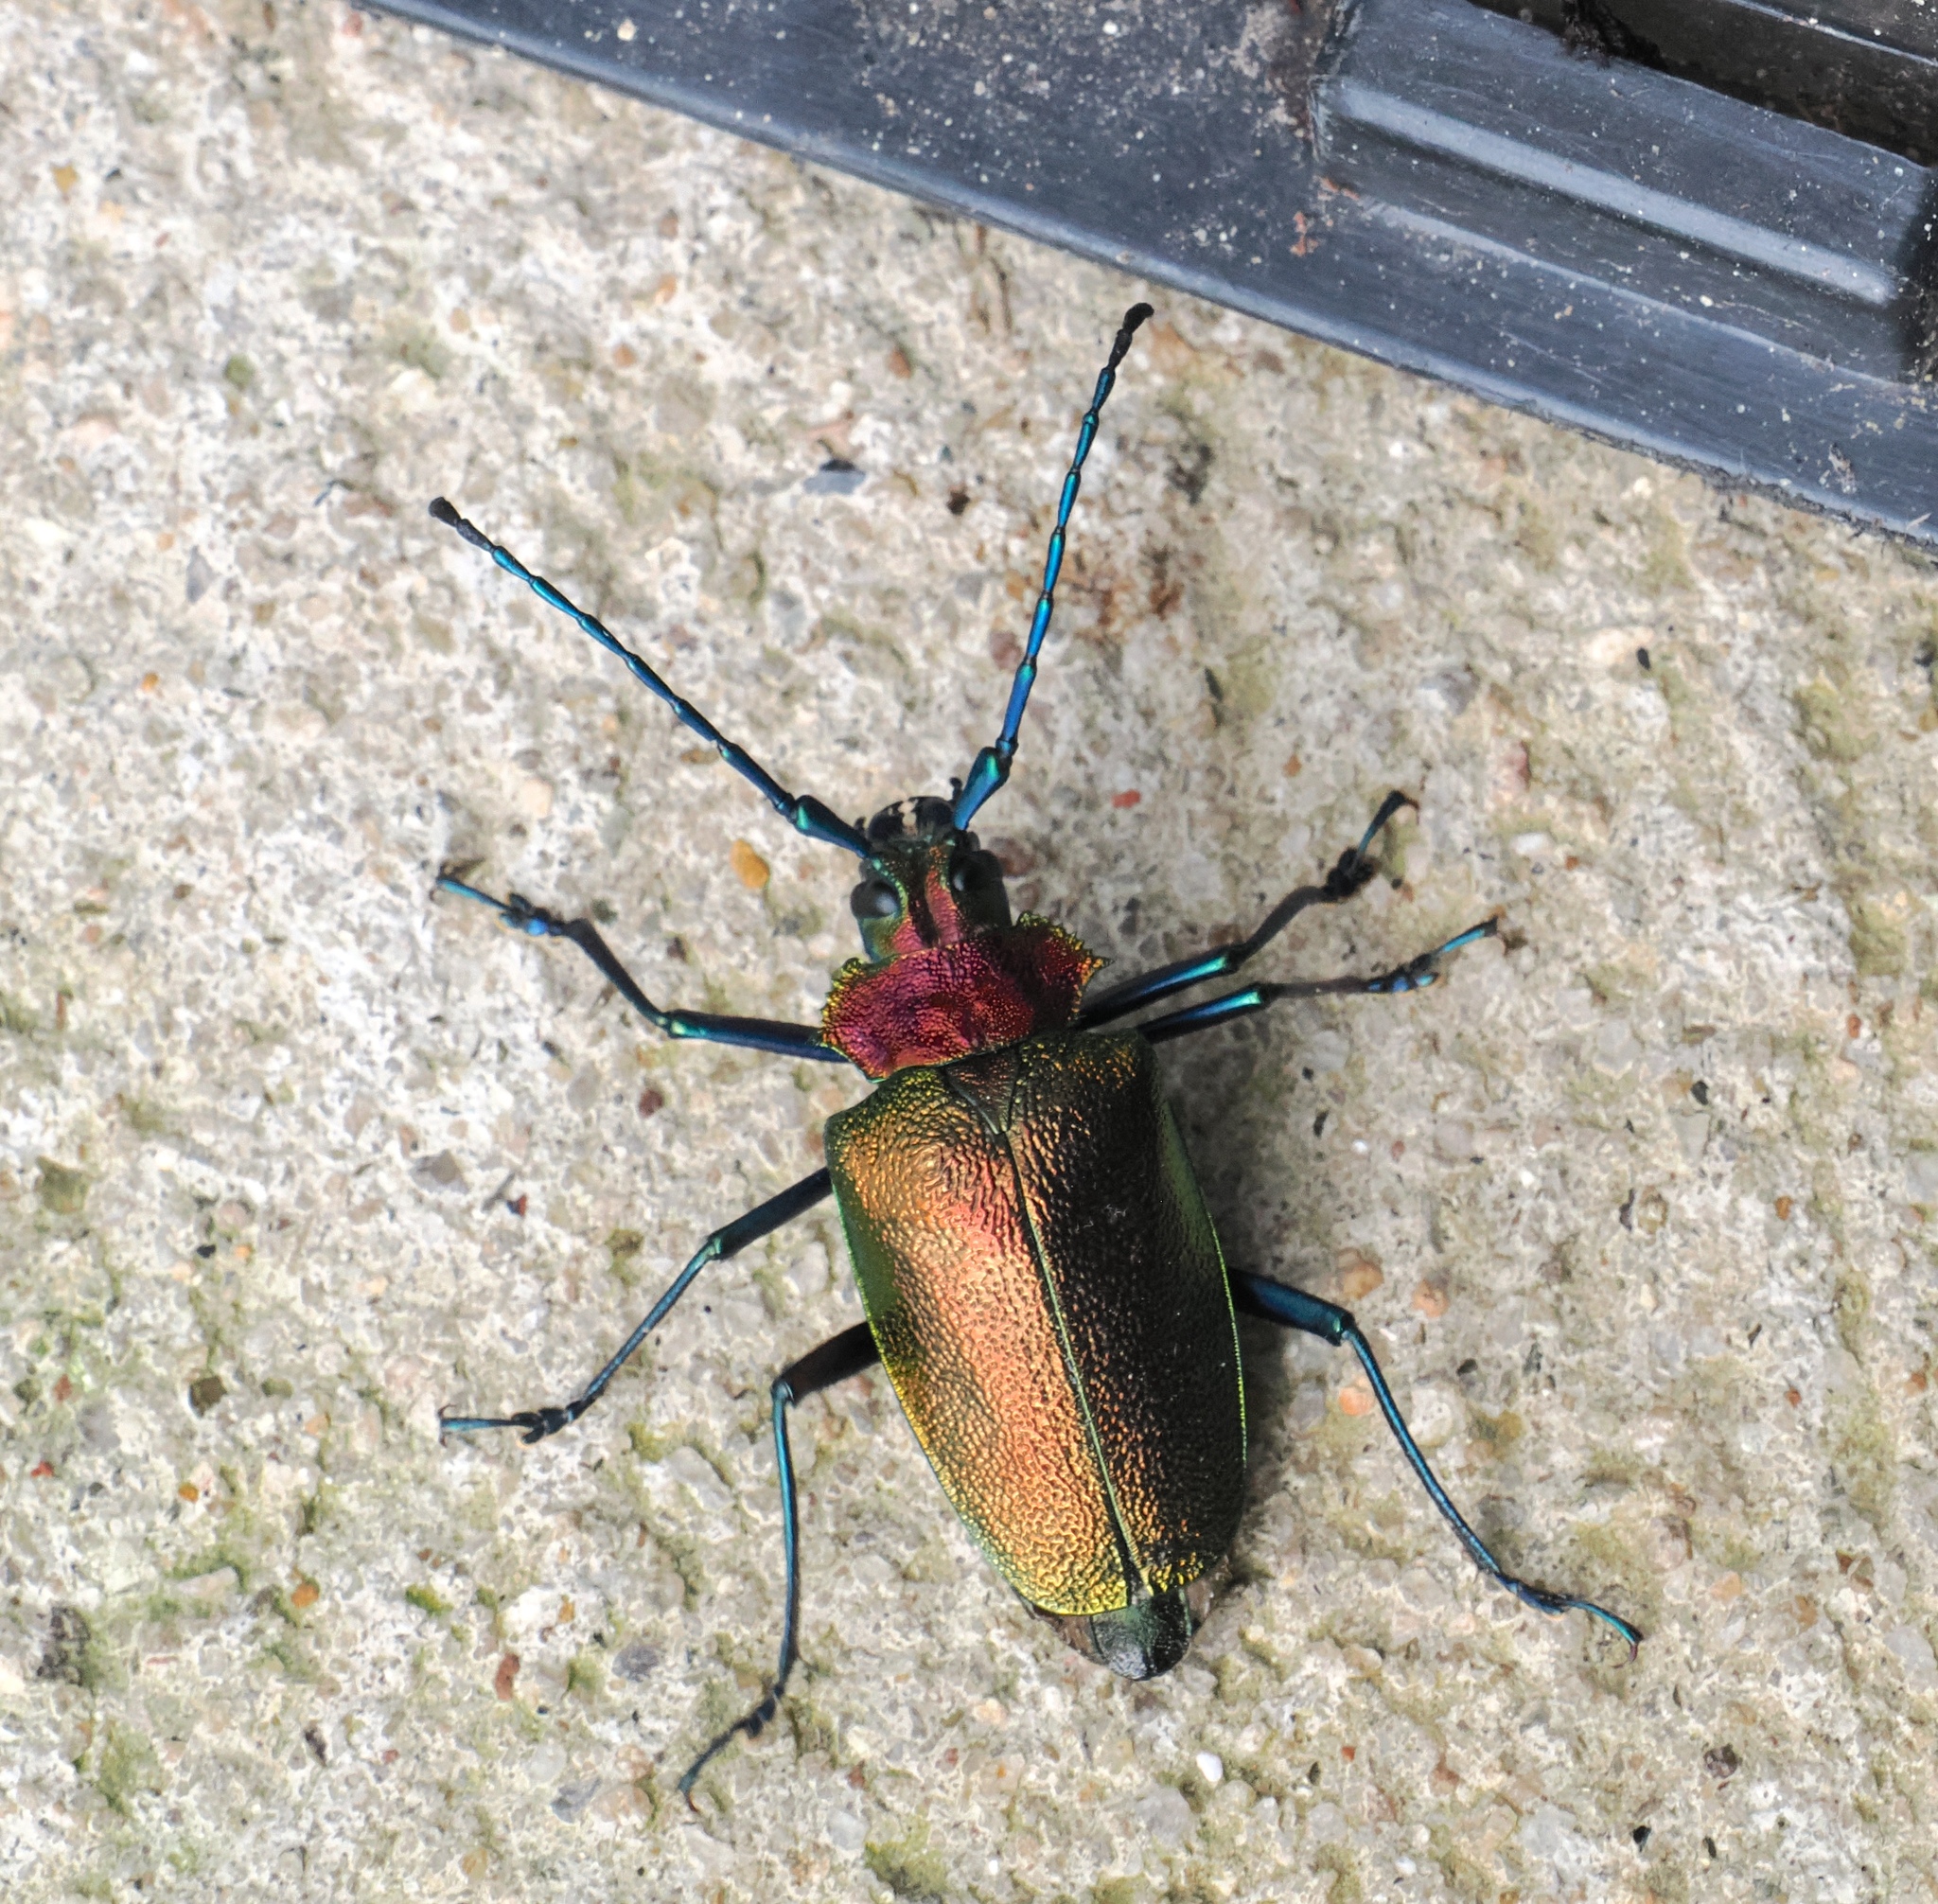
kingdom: Animalia
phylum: Arthropoda
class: Insecta
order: Coleoptera
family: Cerambycidae
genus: Pyrodes
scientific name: Pyrodes nitidus
